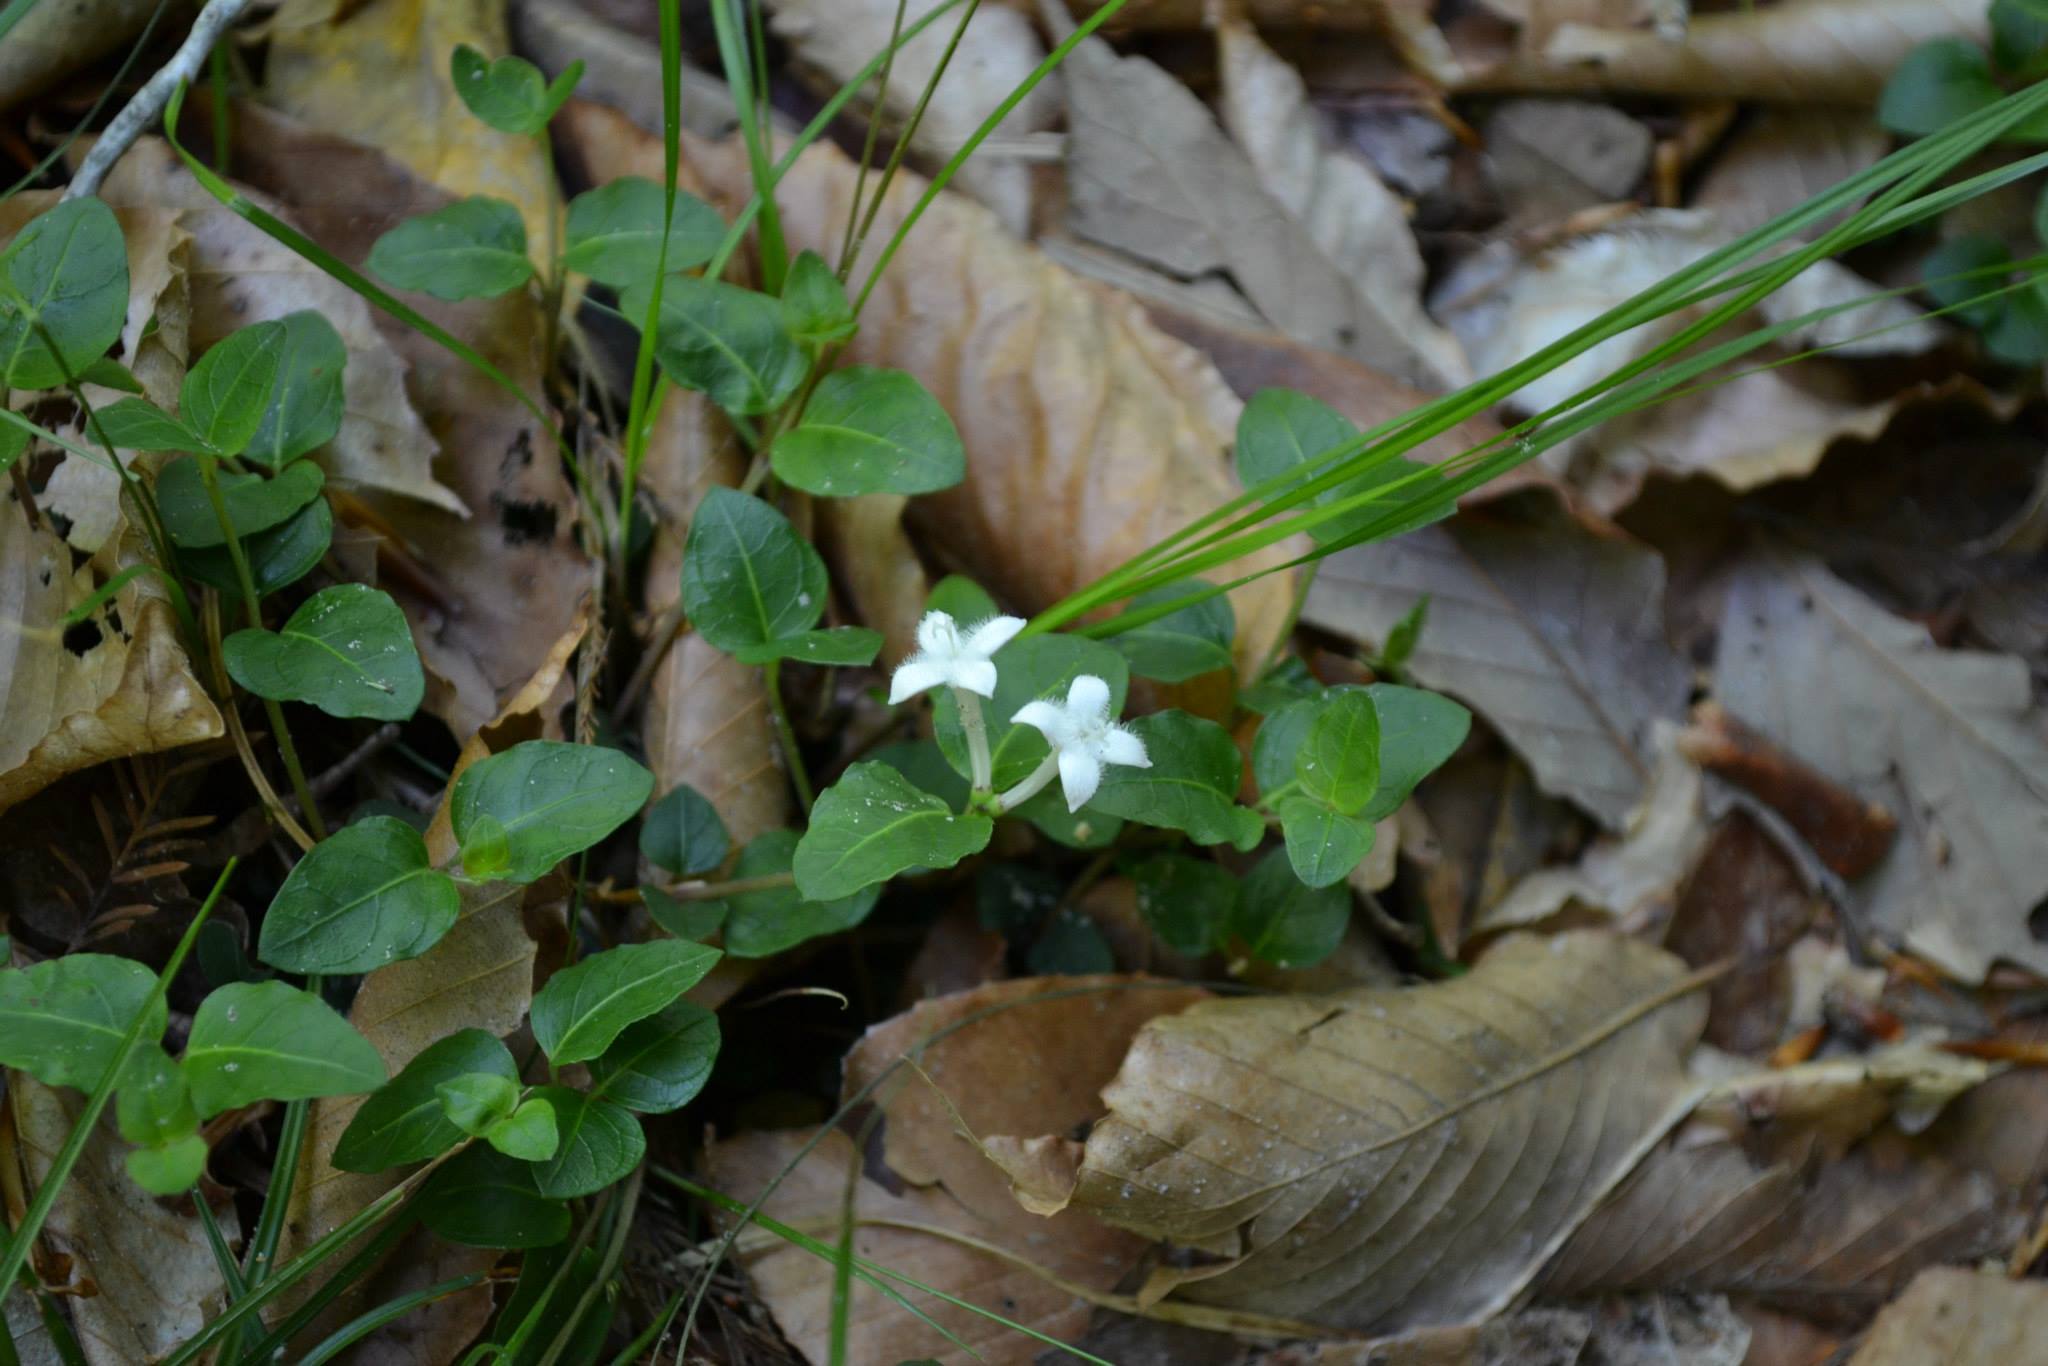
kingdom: Plantae
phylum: Tracheophyta
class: Magnoliopsida
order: Gentianales
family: Rubiaceae
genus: Mitchella
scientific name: Mitchella repens
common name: Partridge-berry
